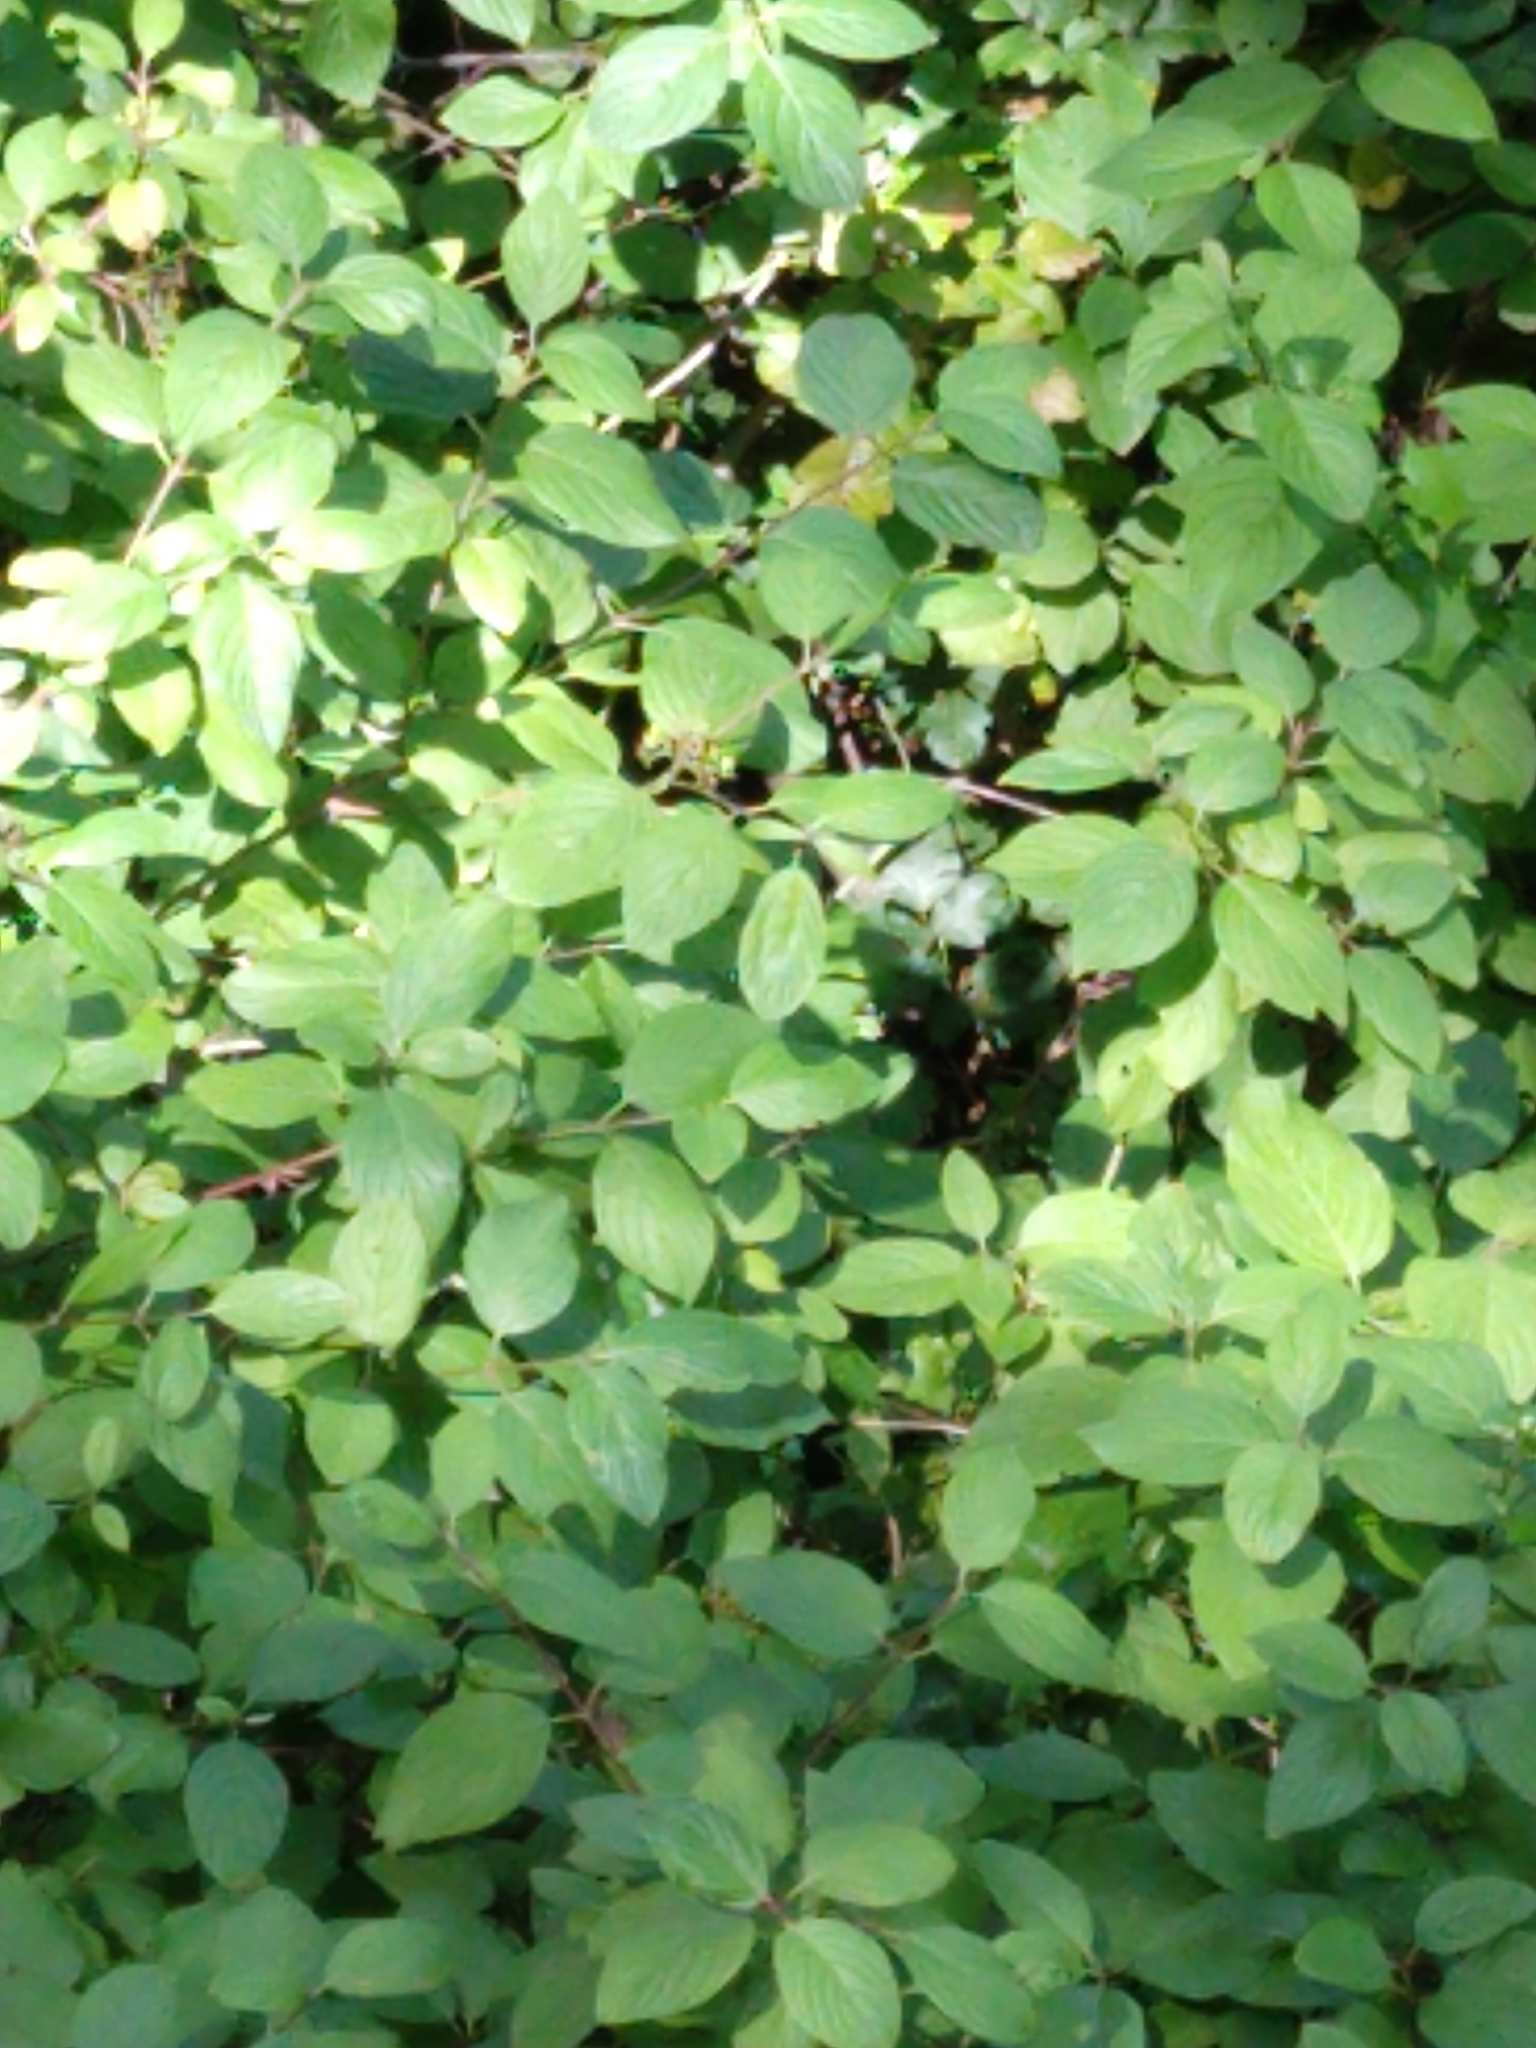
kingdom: Plantae
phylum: Tracheophyta
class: Magnoliopsida
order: Cornales
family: Cornaceae
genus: Cornus
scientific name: Cornus sericea
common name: Red-osier dogwood
